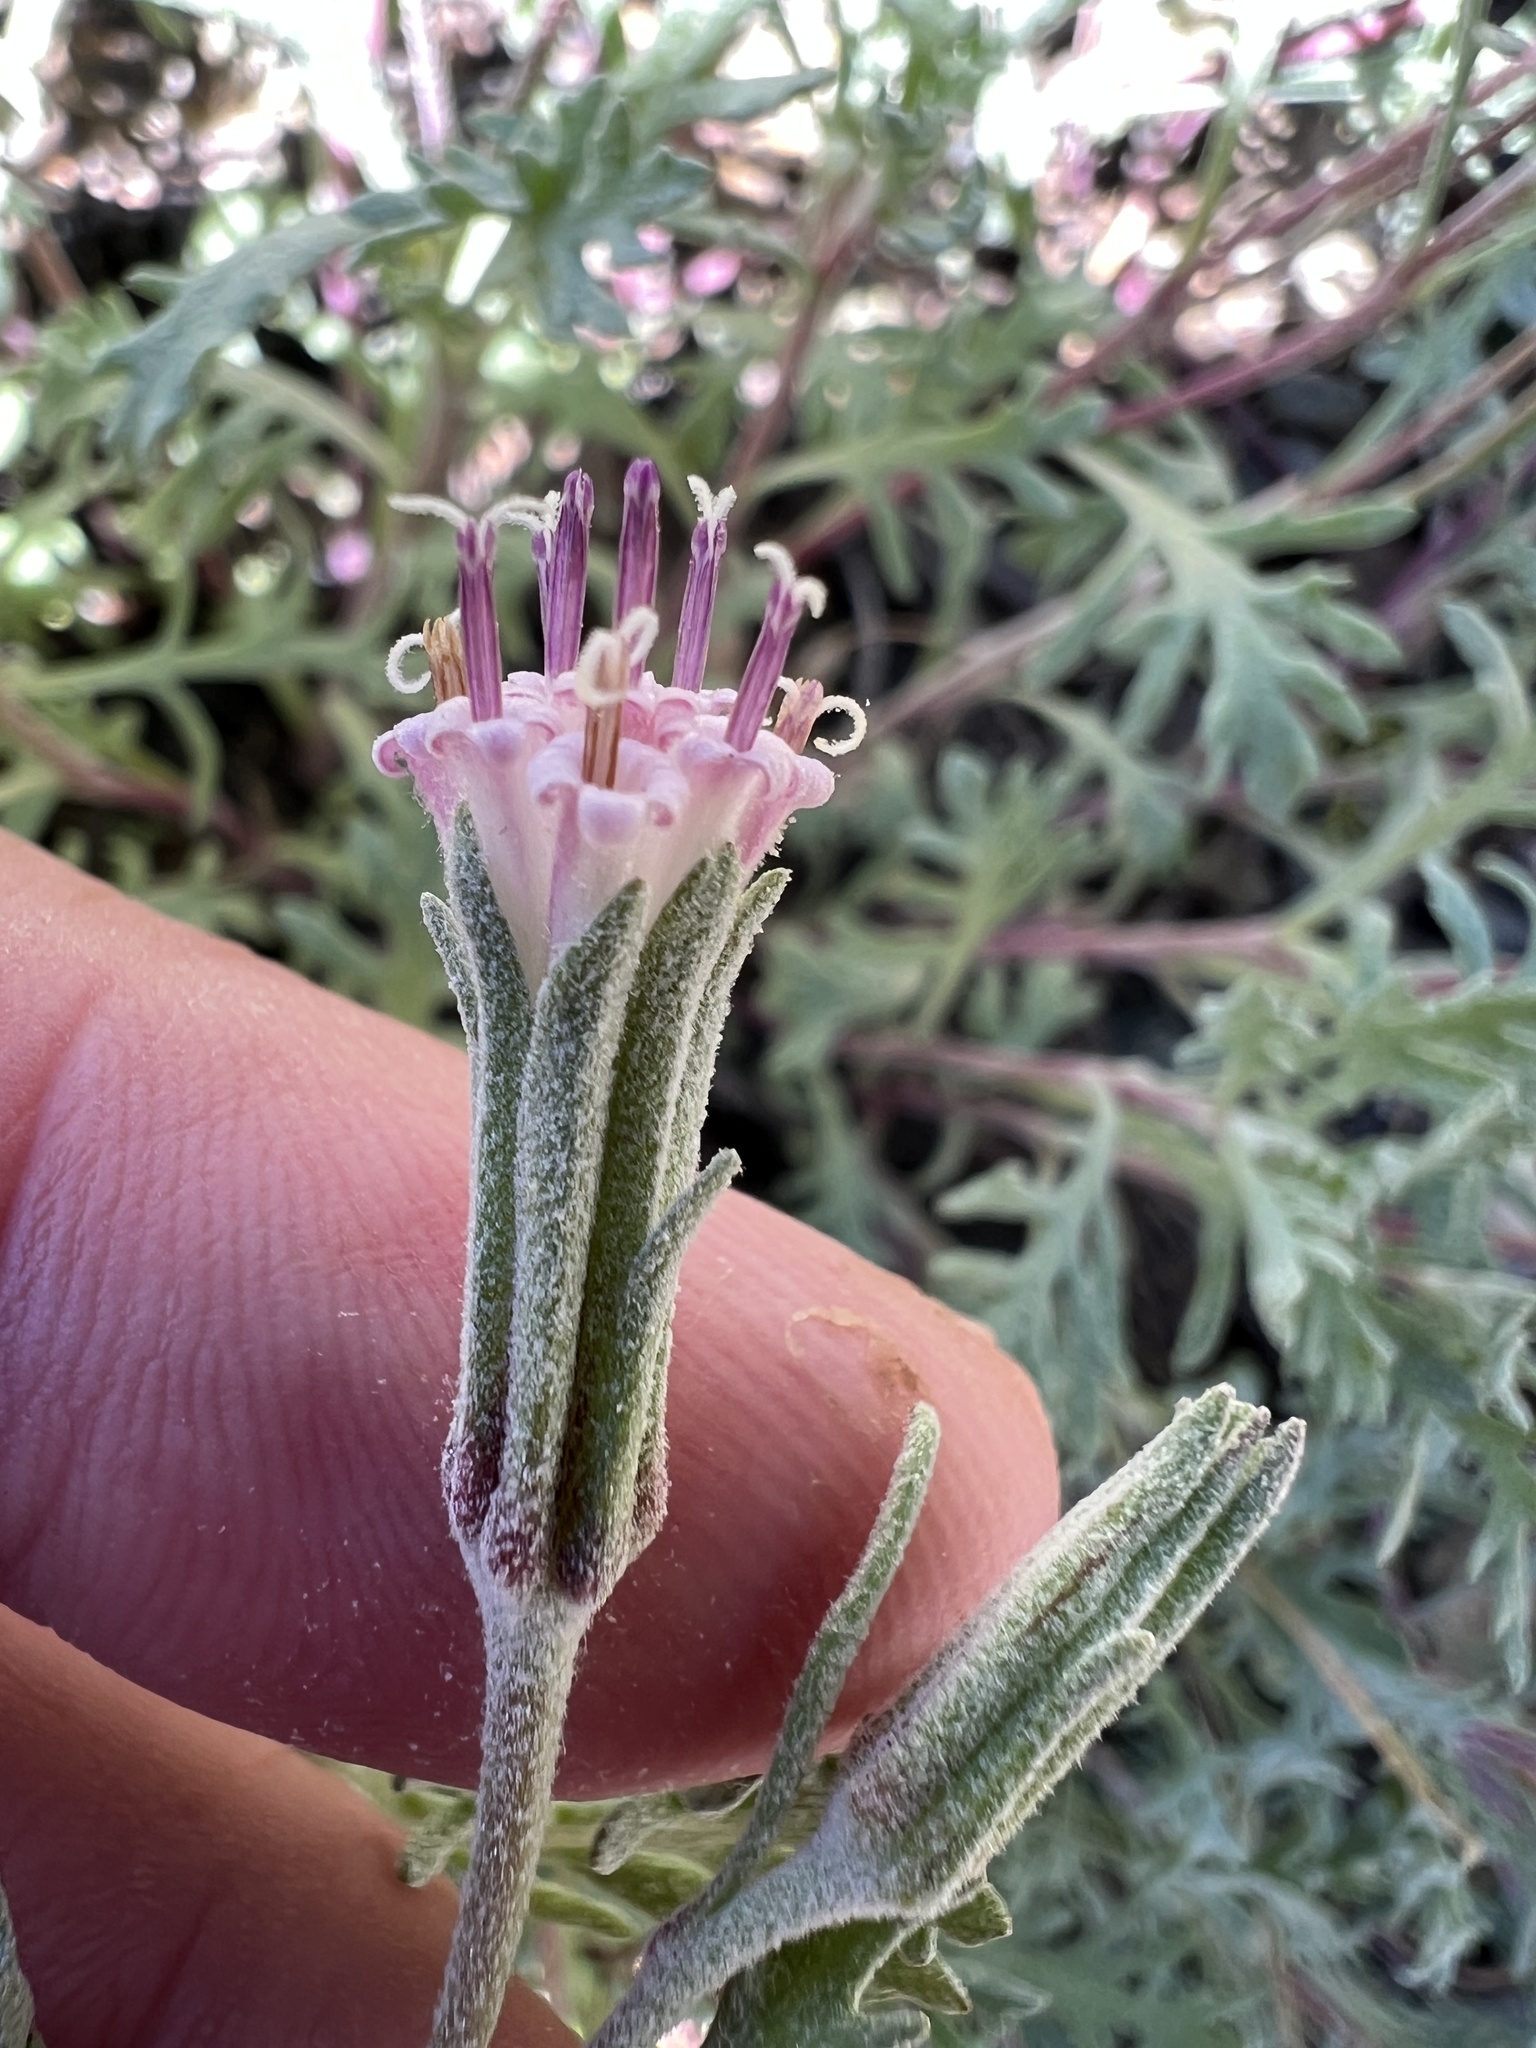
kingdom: Plantae
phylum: Tracheophyta
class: Magnoliopsida
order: Asterales
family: Asteraceae
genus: Chaenactis
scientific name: Chaenactis thompsonii
